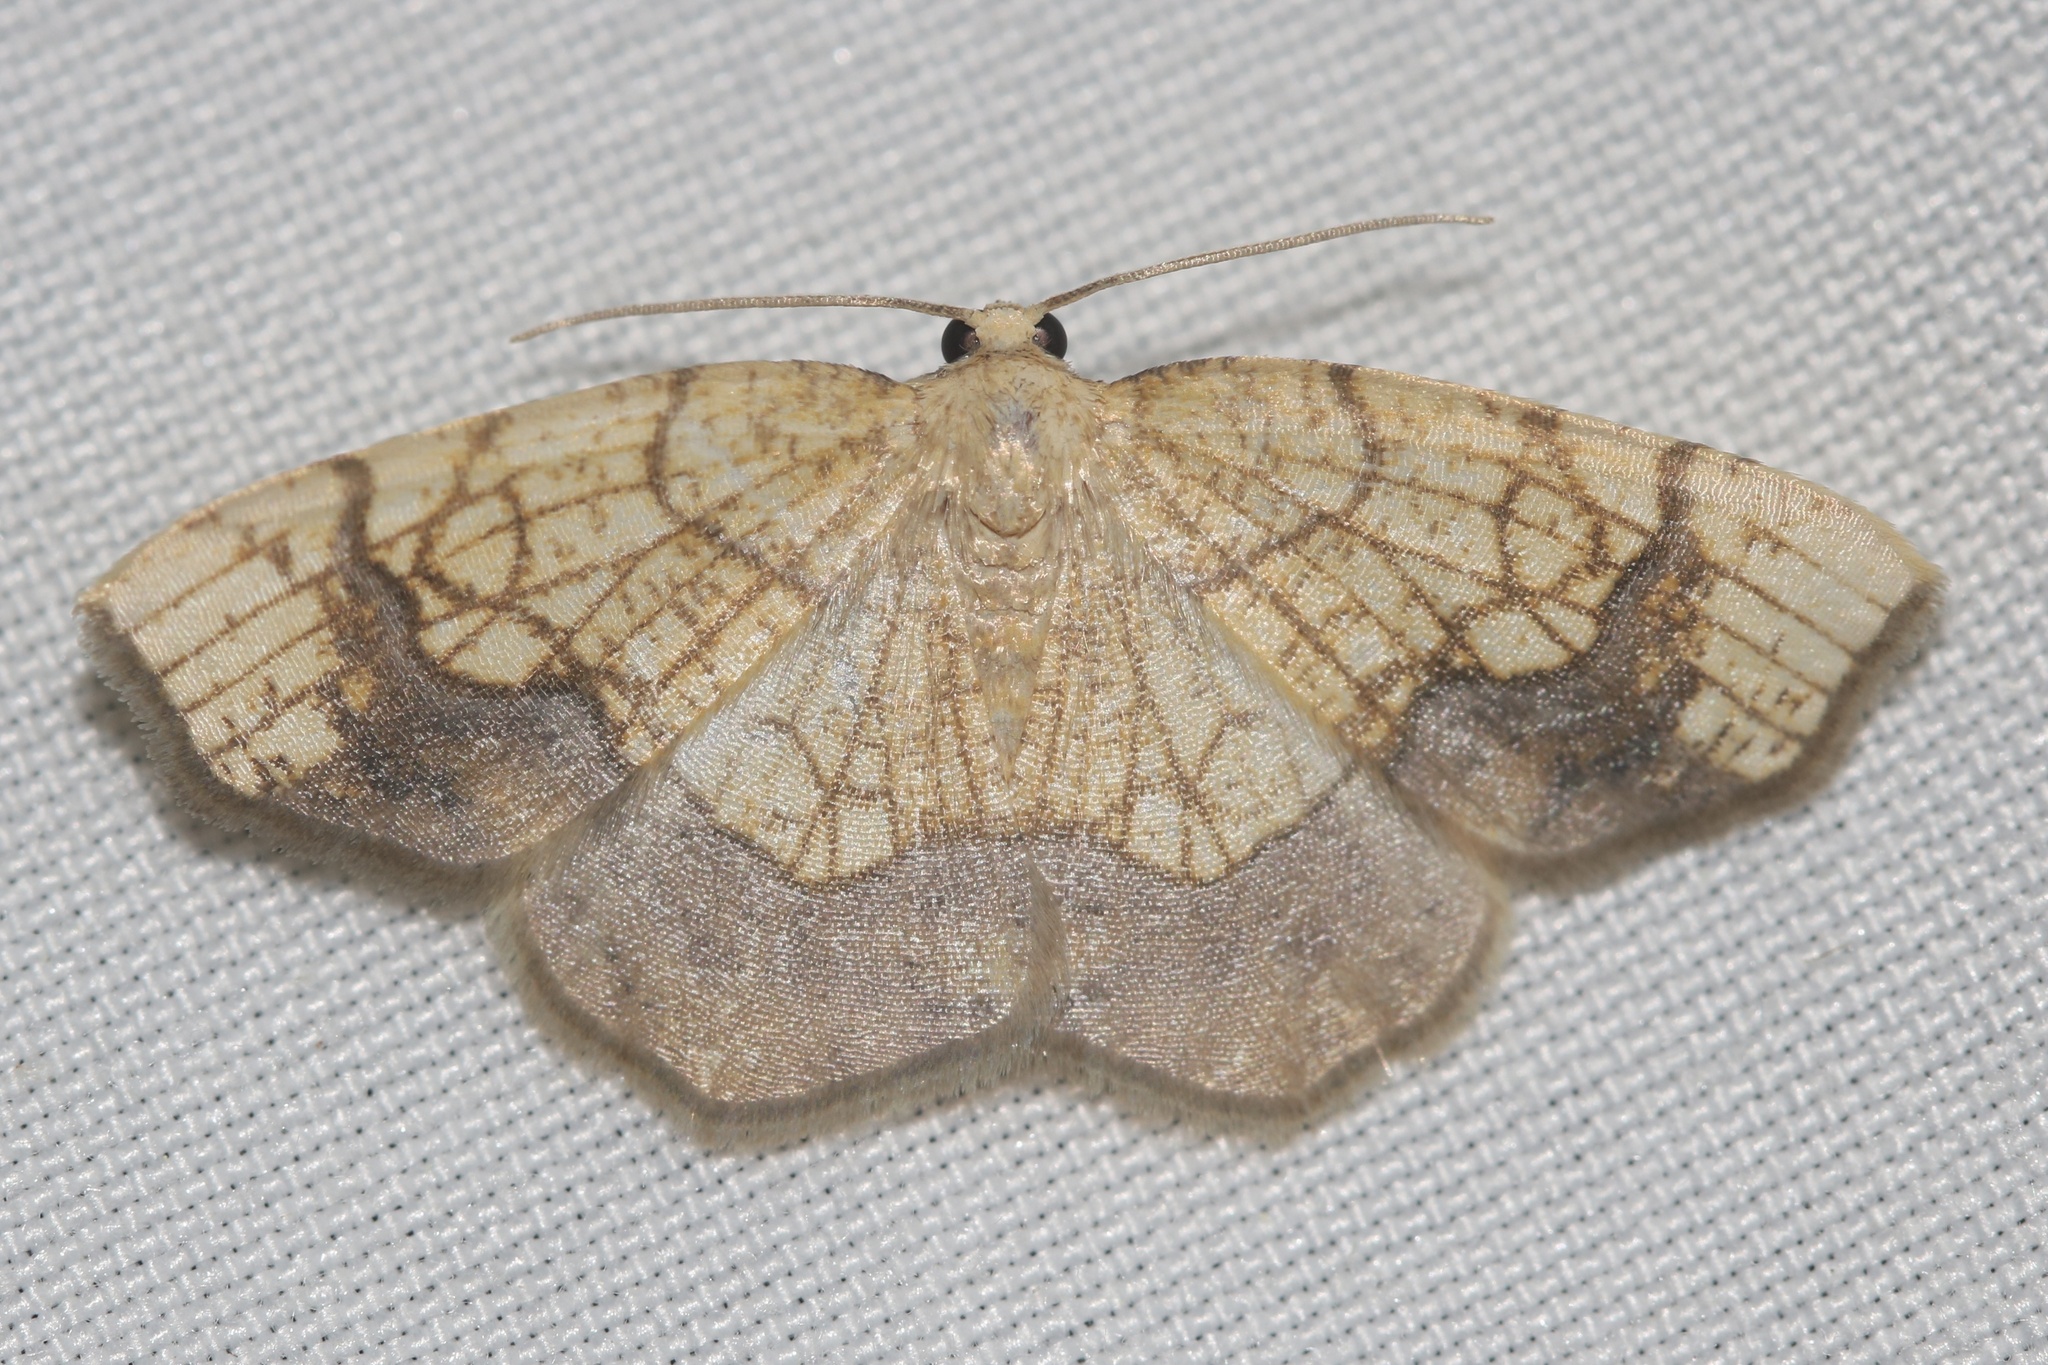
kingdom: Animalia
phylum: Arthropoda
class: Insecta
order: Lepidoptera
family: Geometridae
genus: Nematocampa
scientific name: Nematocampa resistaria
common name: Horned spanworm moth
